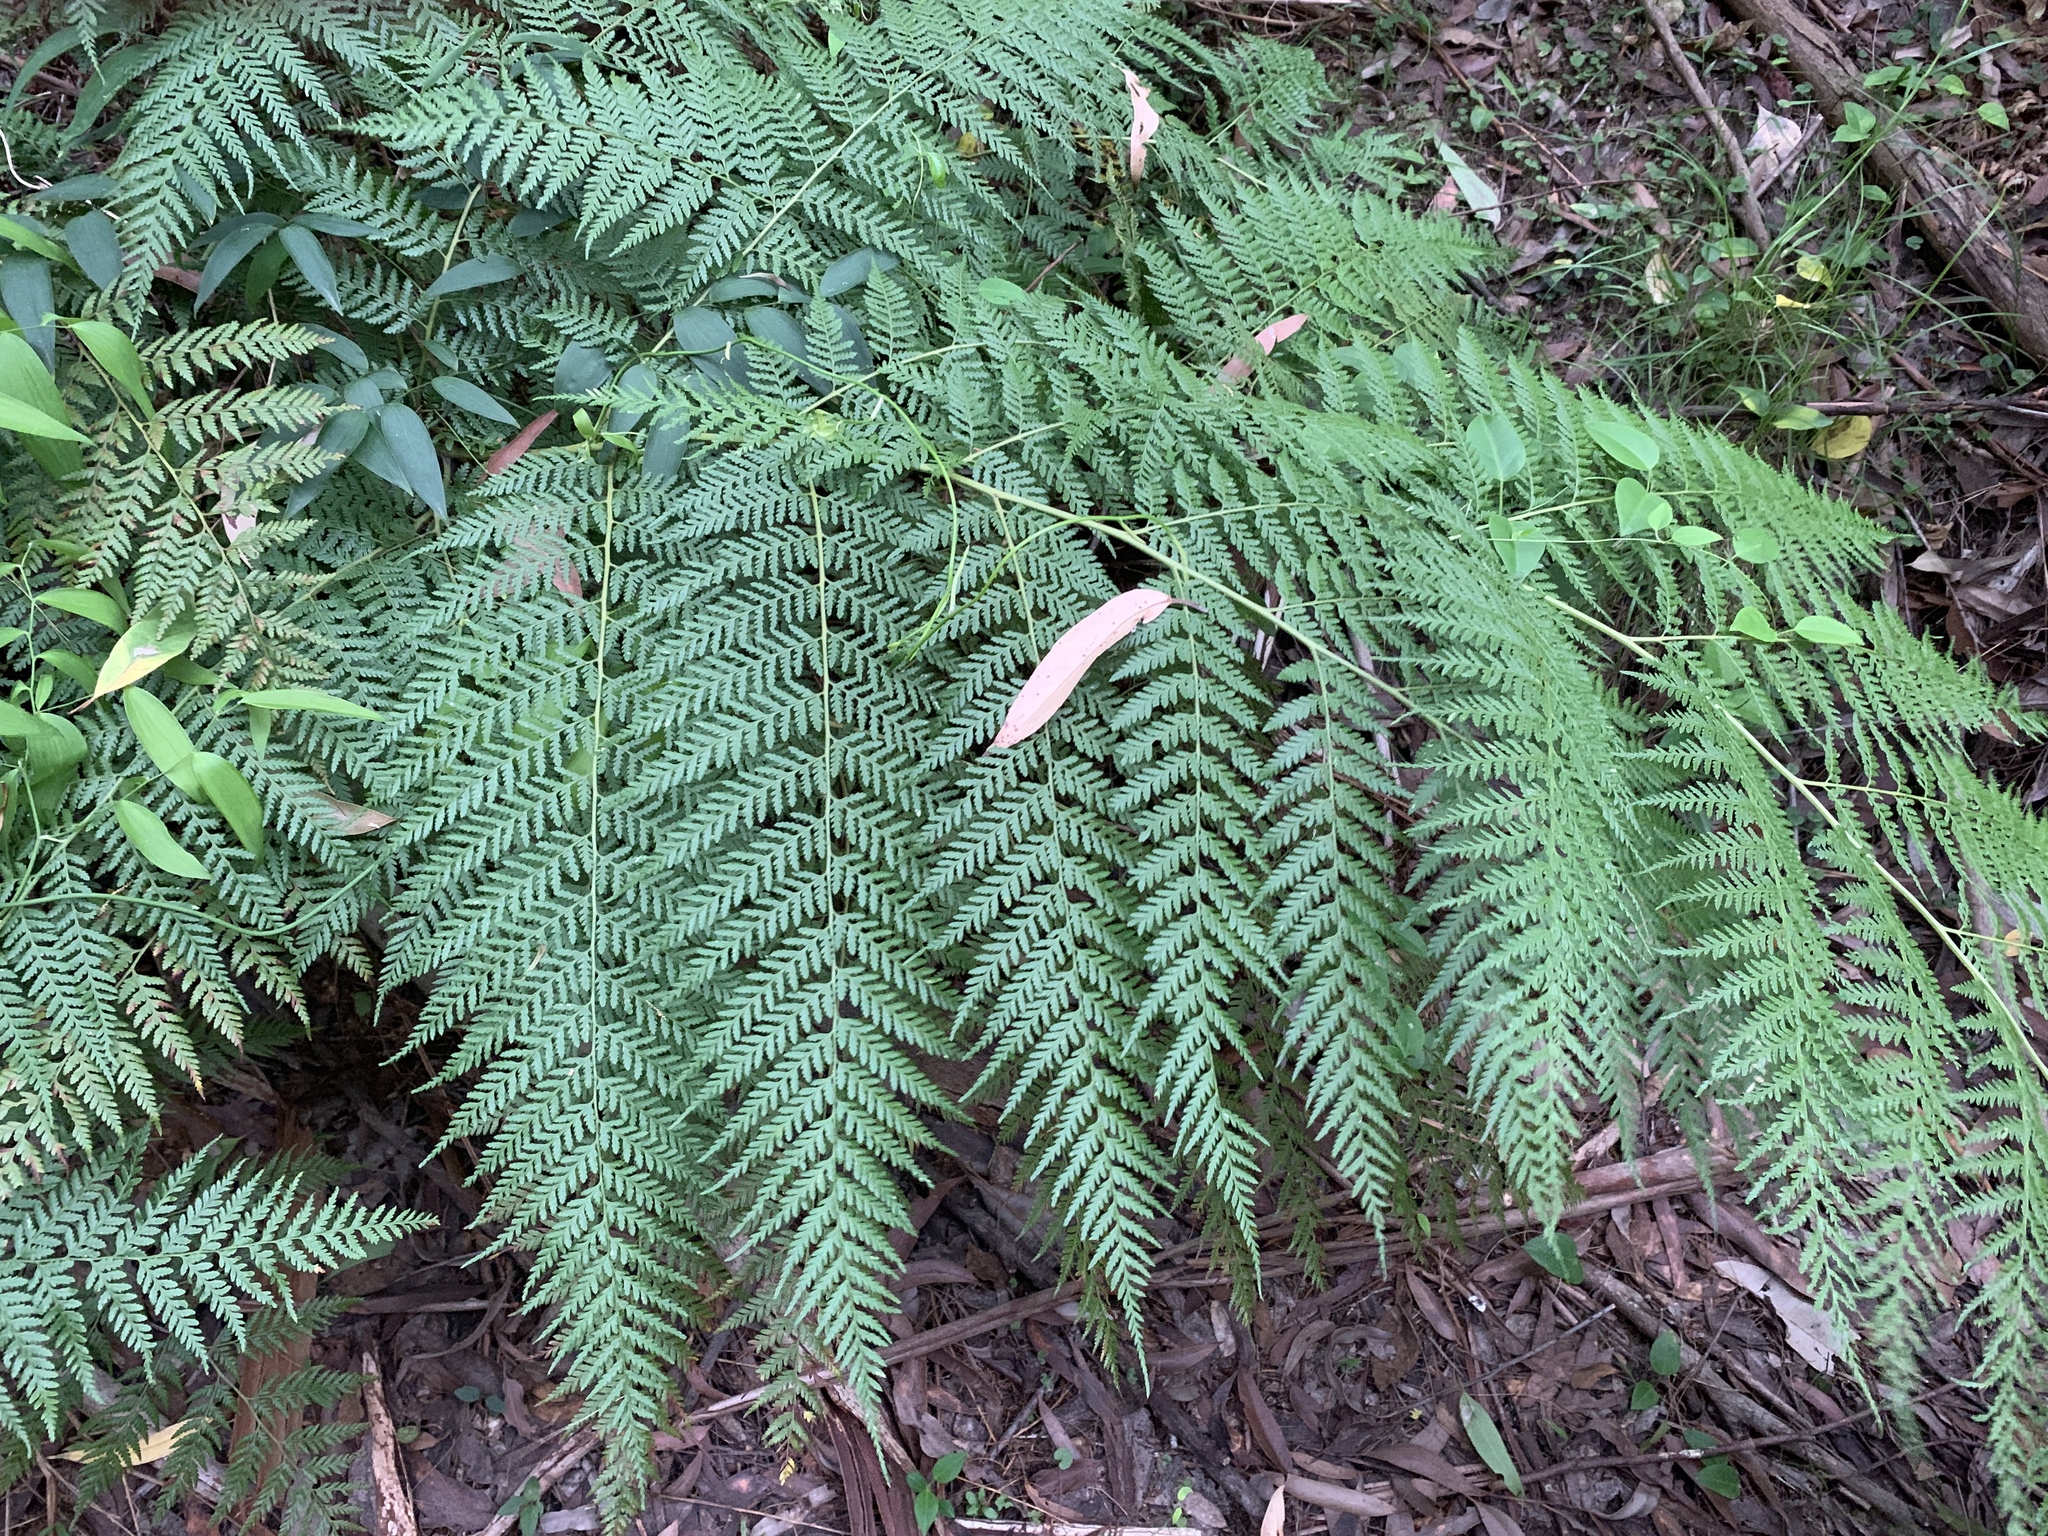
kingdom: Plantae
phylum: Tracheophyta
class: Polypodiopsida
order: Cyatheales
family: Dicksoniaceae
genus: Calochlaena
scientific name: Calochlaena dubia
